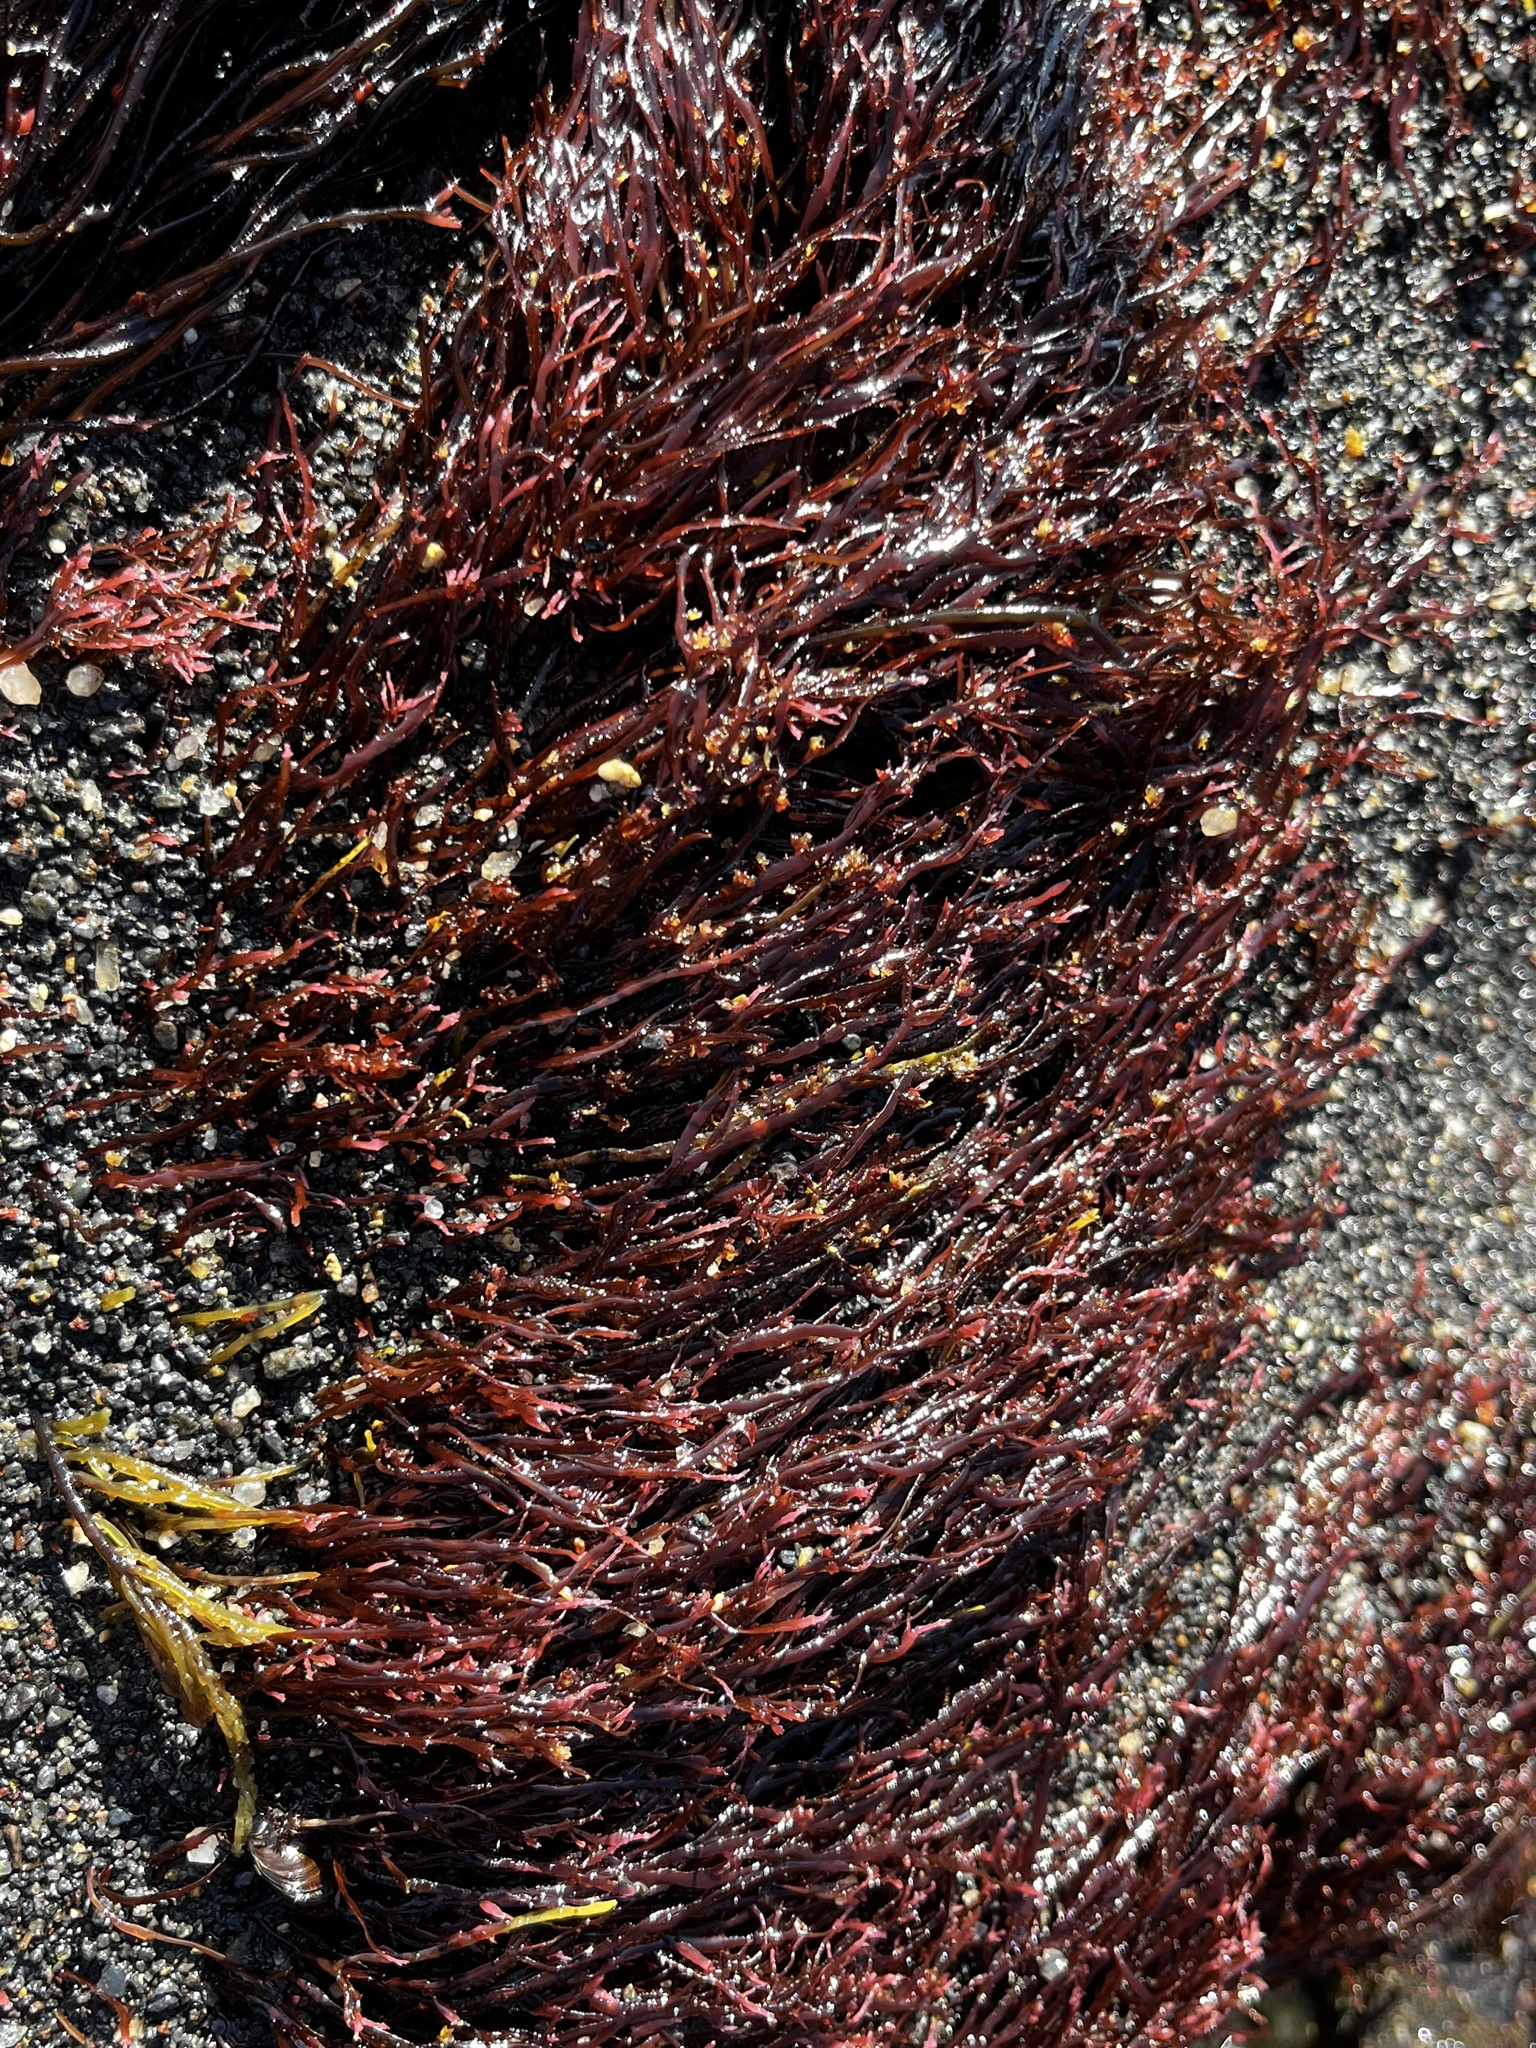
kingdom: Plantae
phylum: Rhodophyta
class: Florideophyceae
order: Gelidiales
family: Gelidiaceae
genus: Gelidium
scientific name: Gelidium
